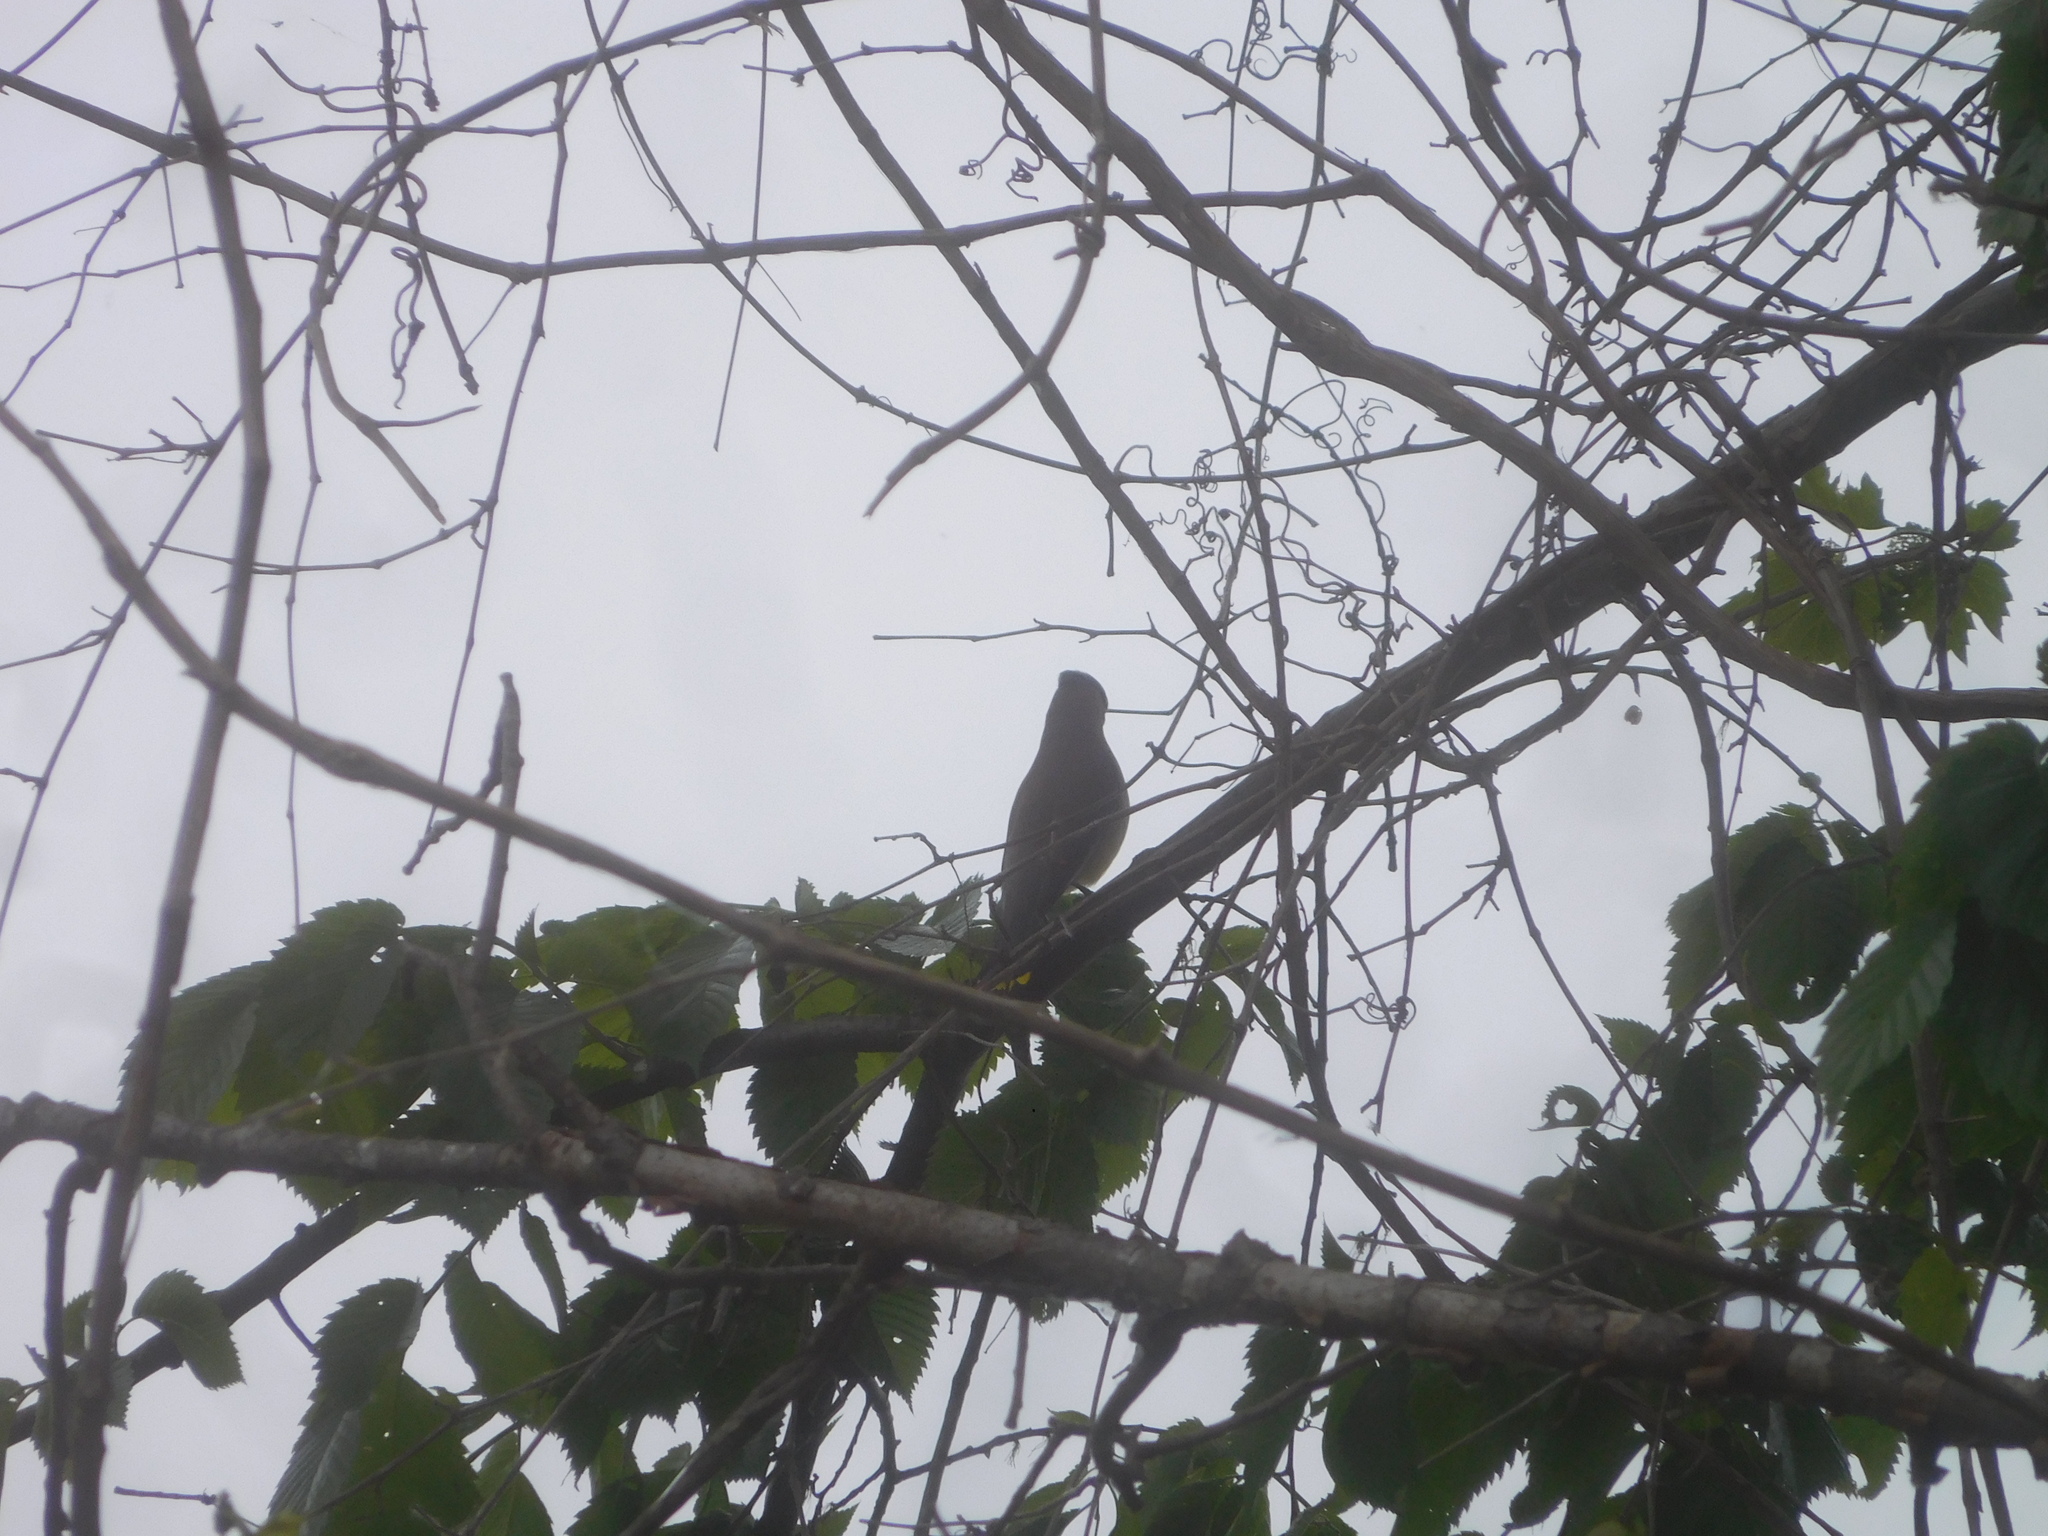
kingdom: Animalia
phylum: Chordata
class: Aves
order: Passeriformes
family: Bombycillidae
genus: Bombycilla
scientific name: Bombycilla cedrorum
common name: Cedar waxwing
